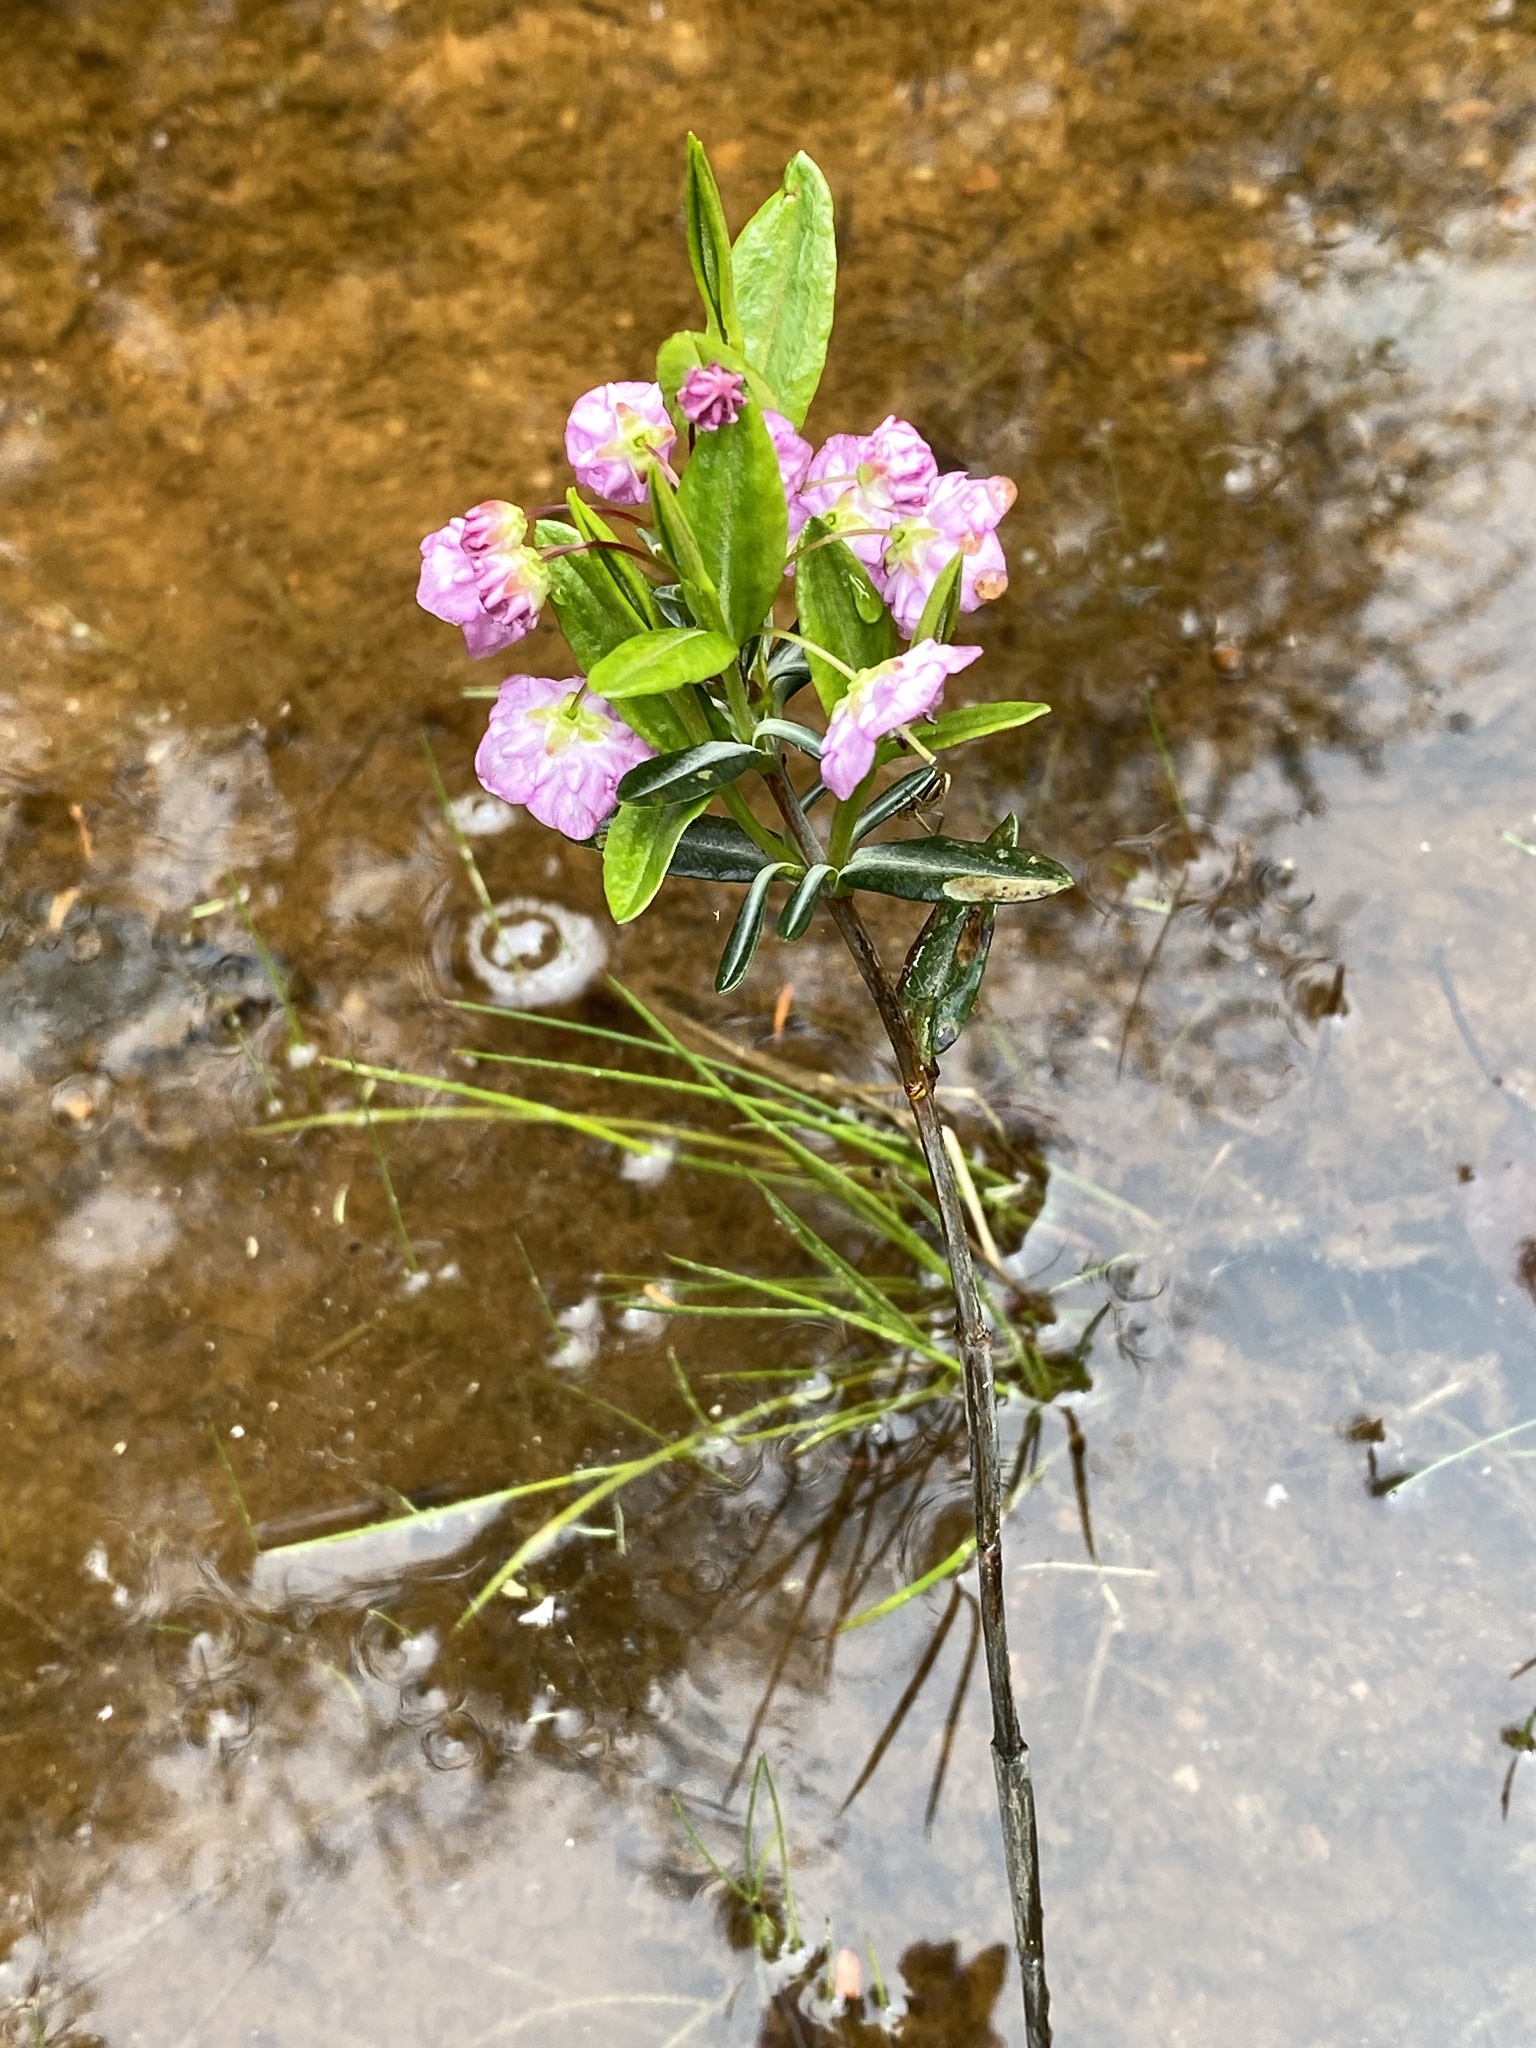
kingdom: Plantae
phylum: Tracheophyta
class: Magnoliopsida
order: Ericales
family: Ericaceae
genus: Kalmia
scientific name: Kalmia polifolia
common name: Bog-laurel
